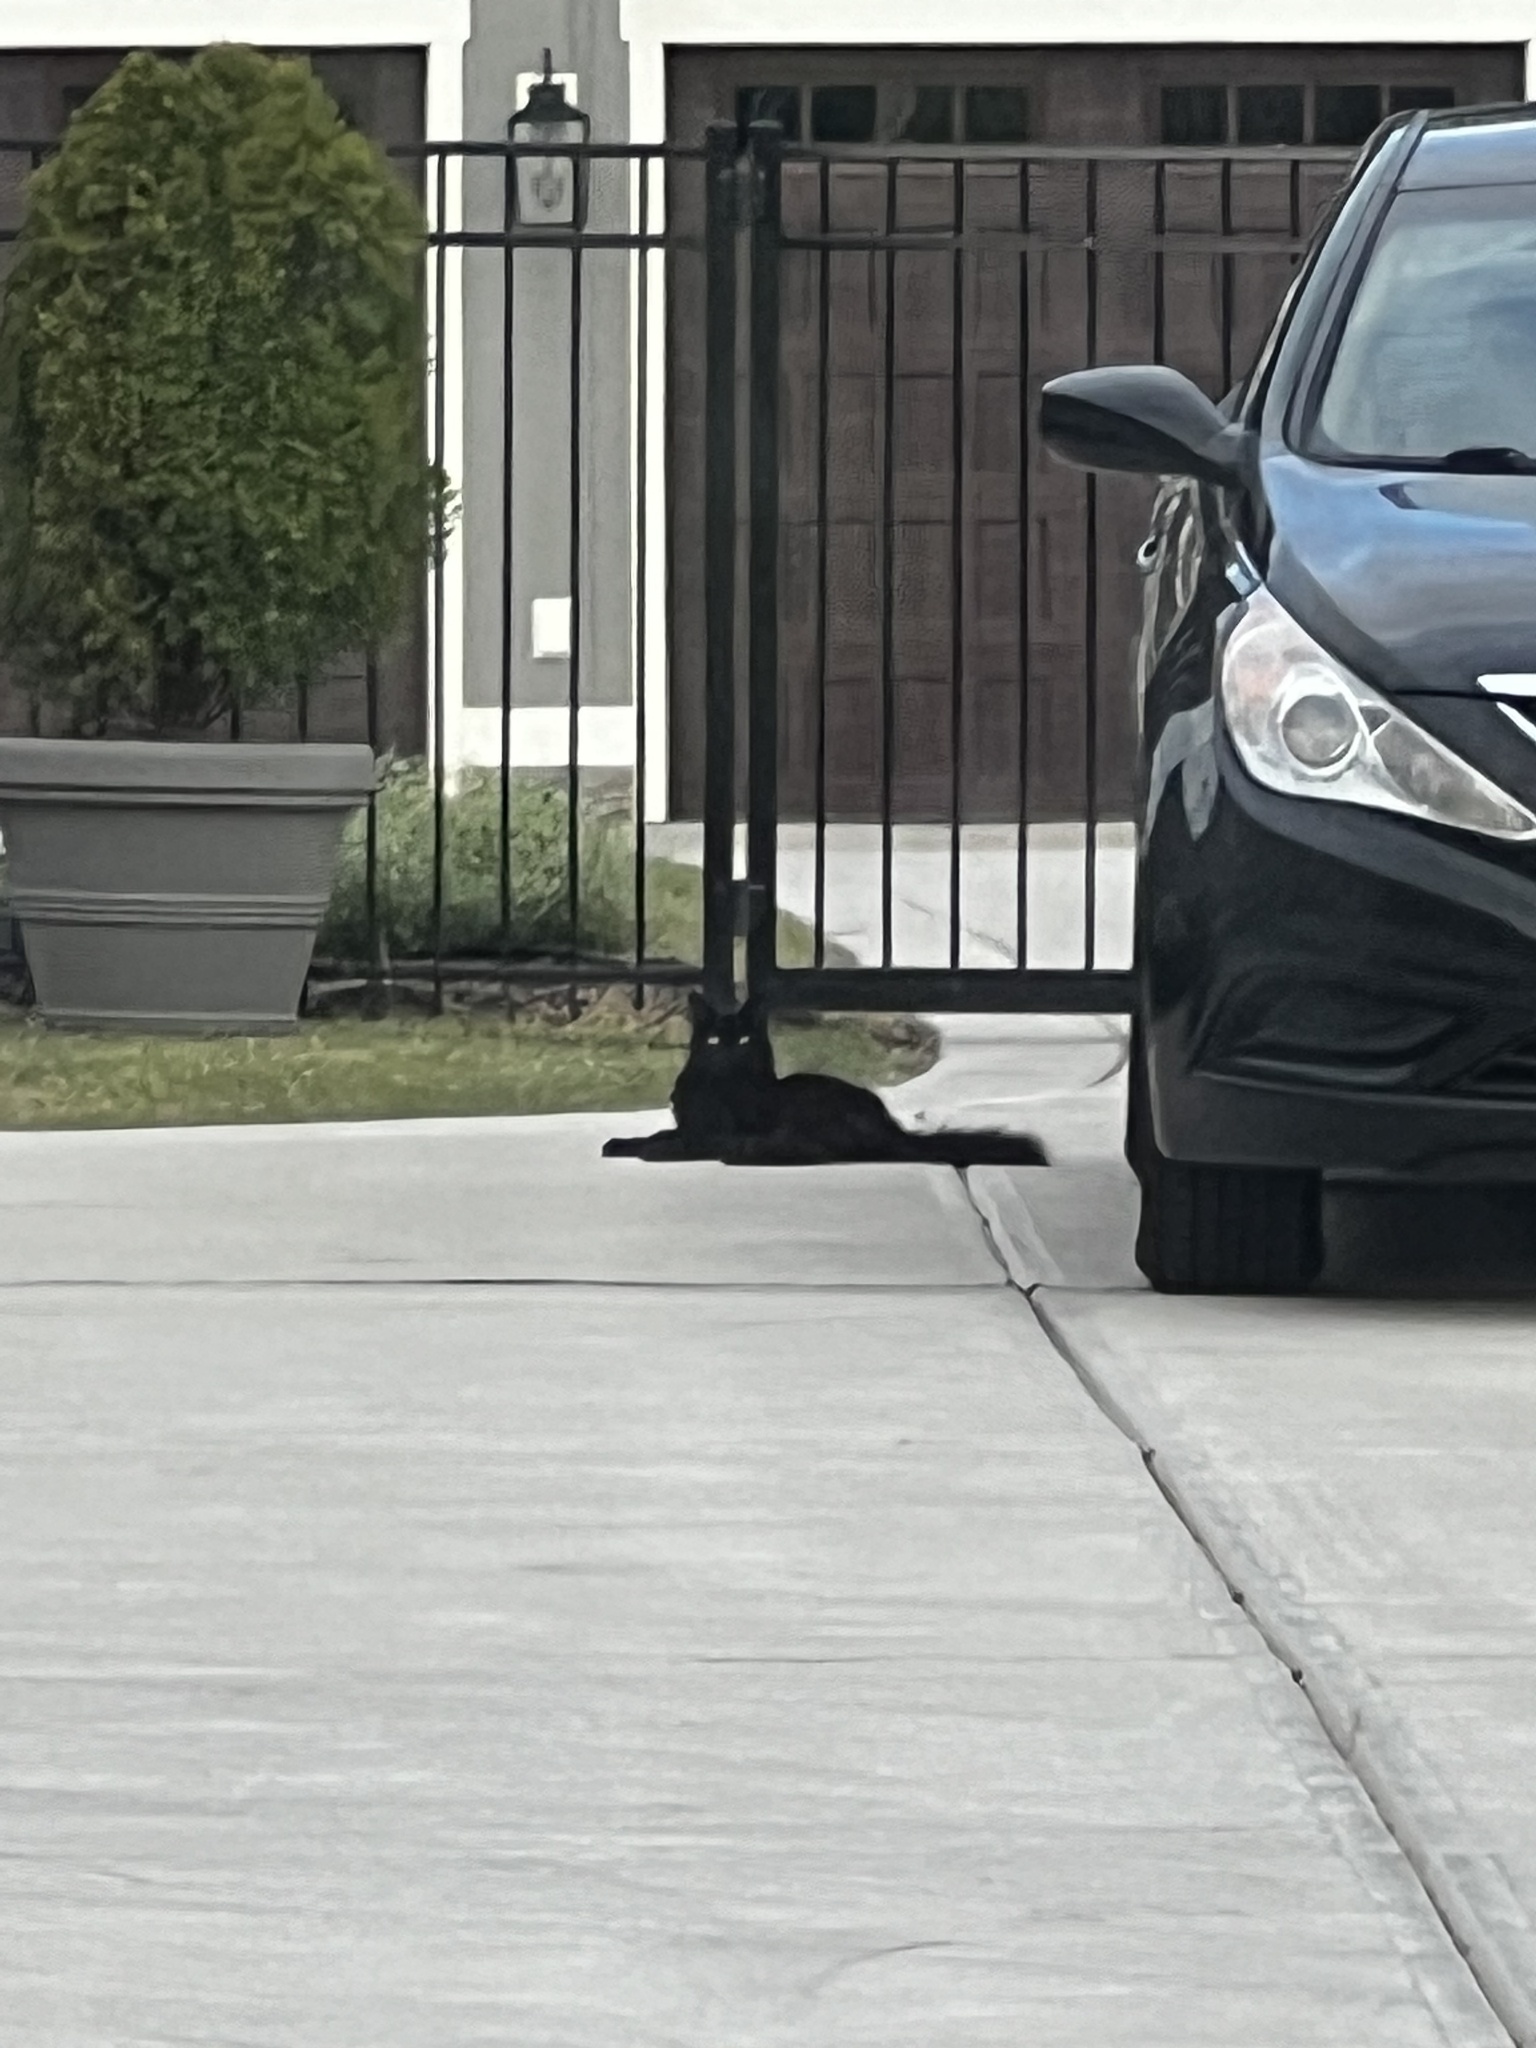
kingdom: Animalia
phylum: Chordata
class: Mammalia
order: Carnivora
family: Felidae
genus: Felis
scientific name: Felis catus
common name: Domestic cat
